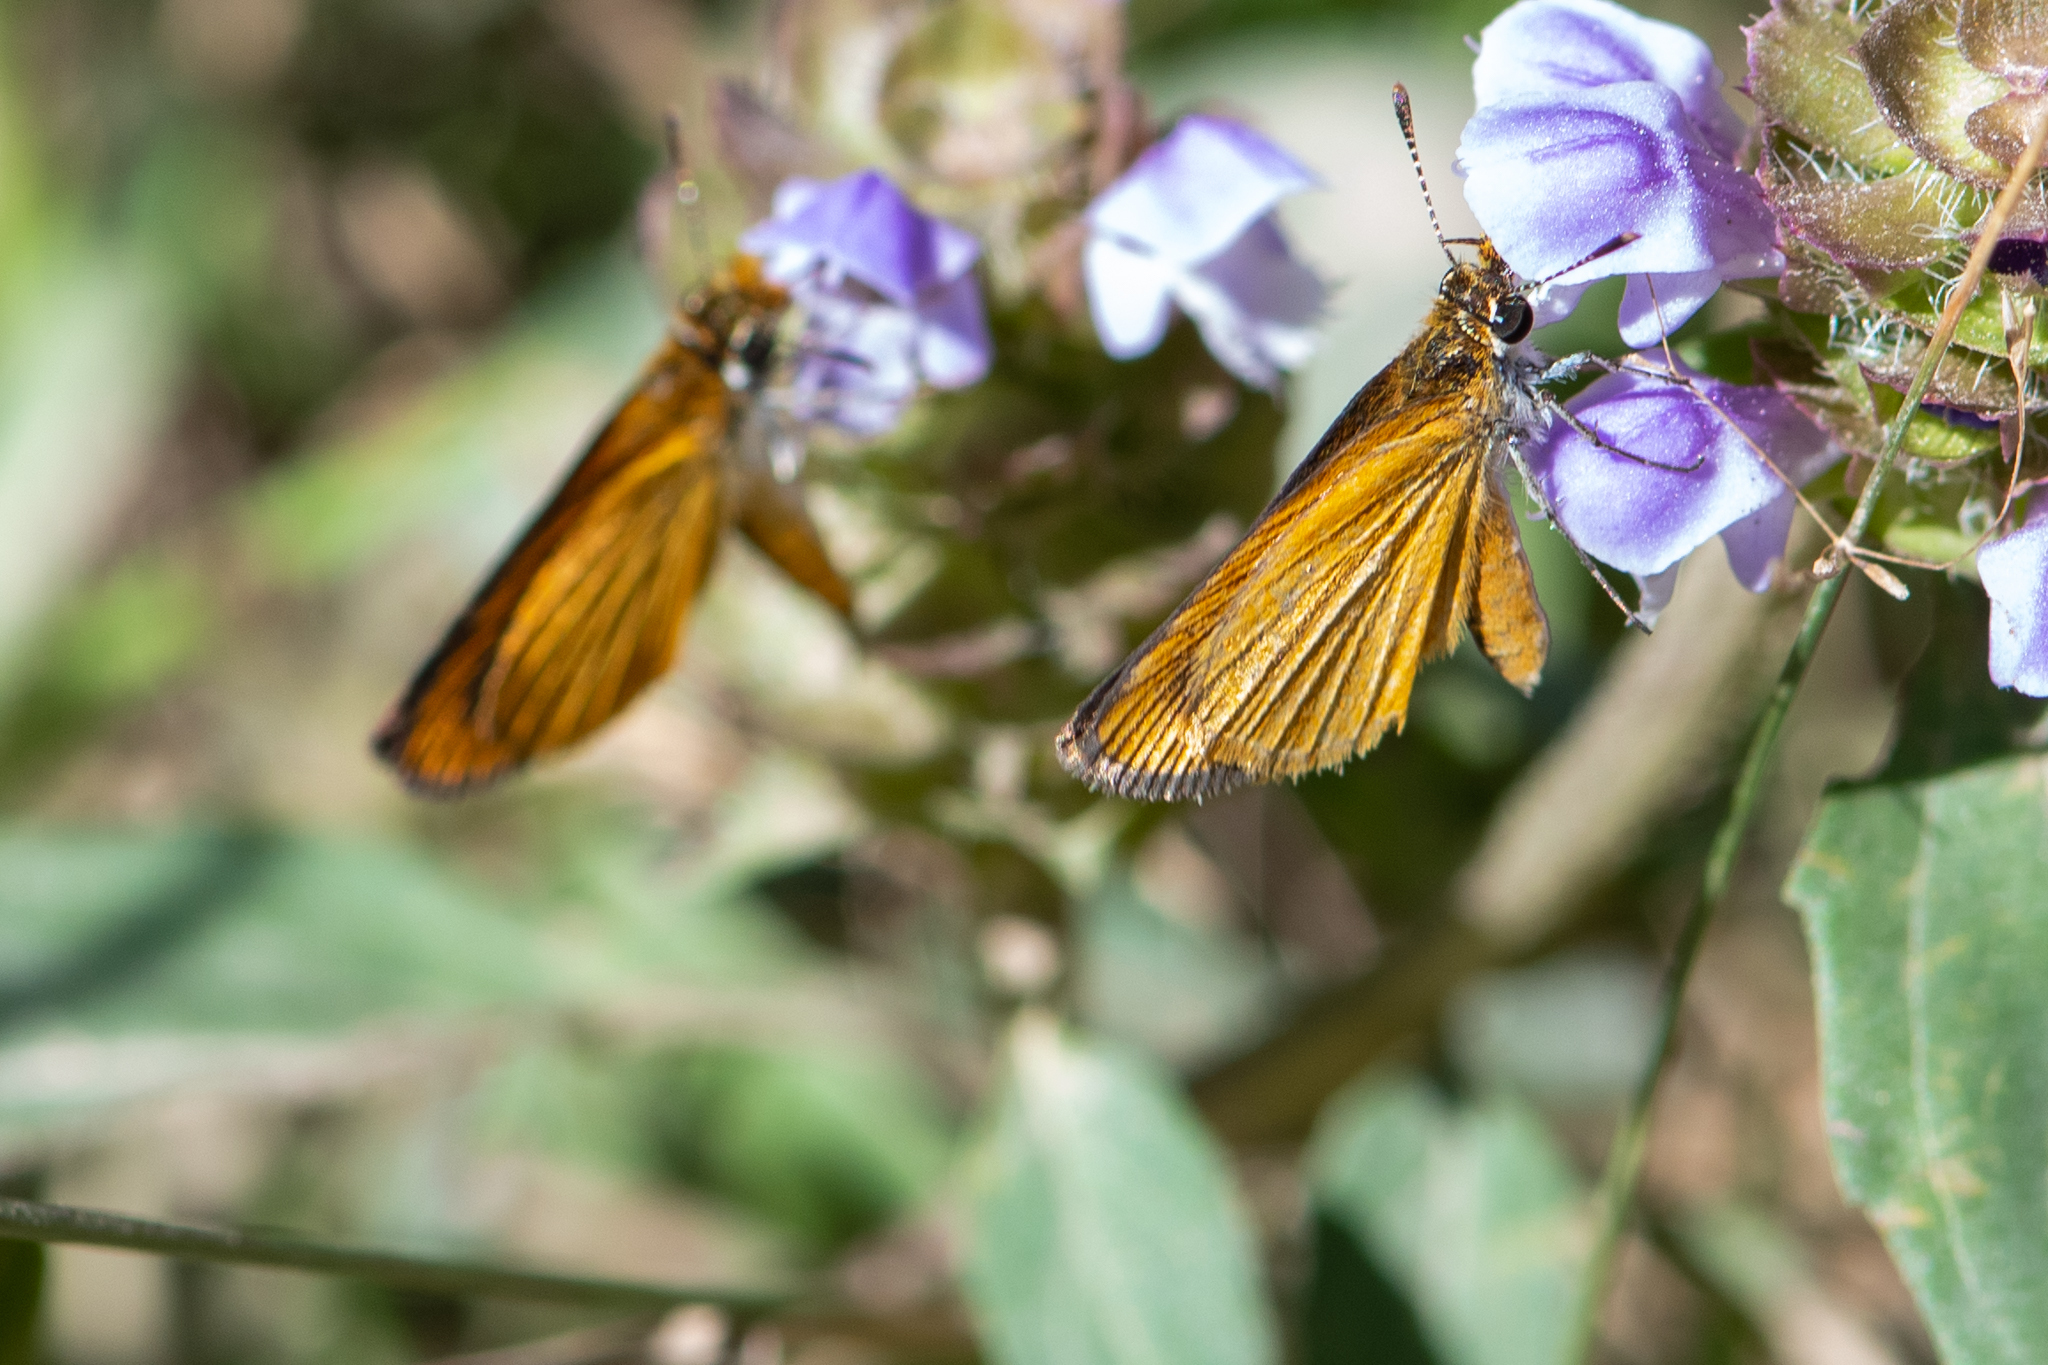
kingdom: Animalia
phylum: Arthropoda
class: Insecta
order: Lepidoptera
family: Hesperiidae
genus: Ancyloxypha
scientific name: Ancyloxypha numitor
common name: Least skipper
